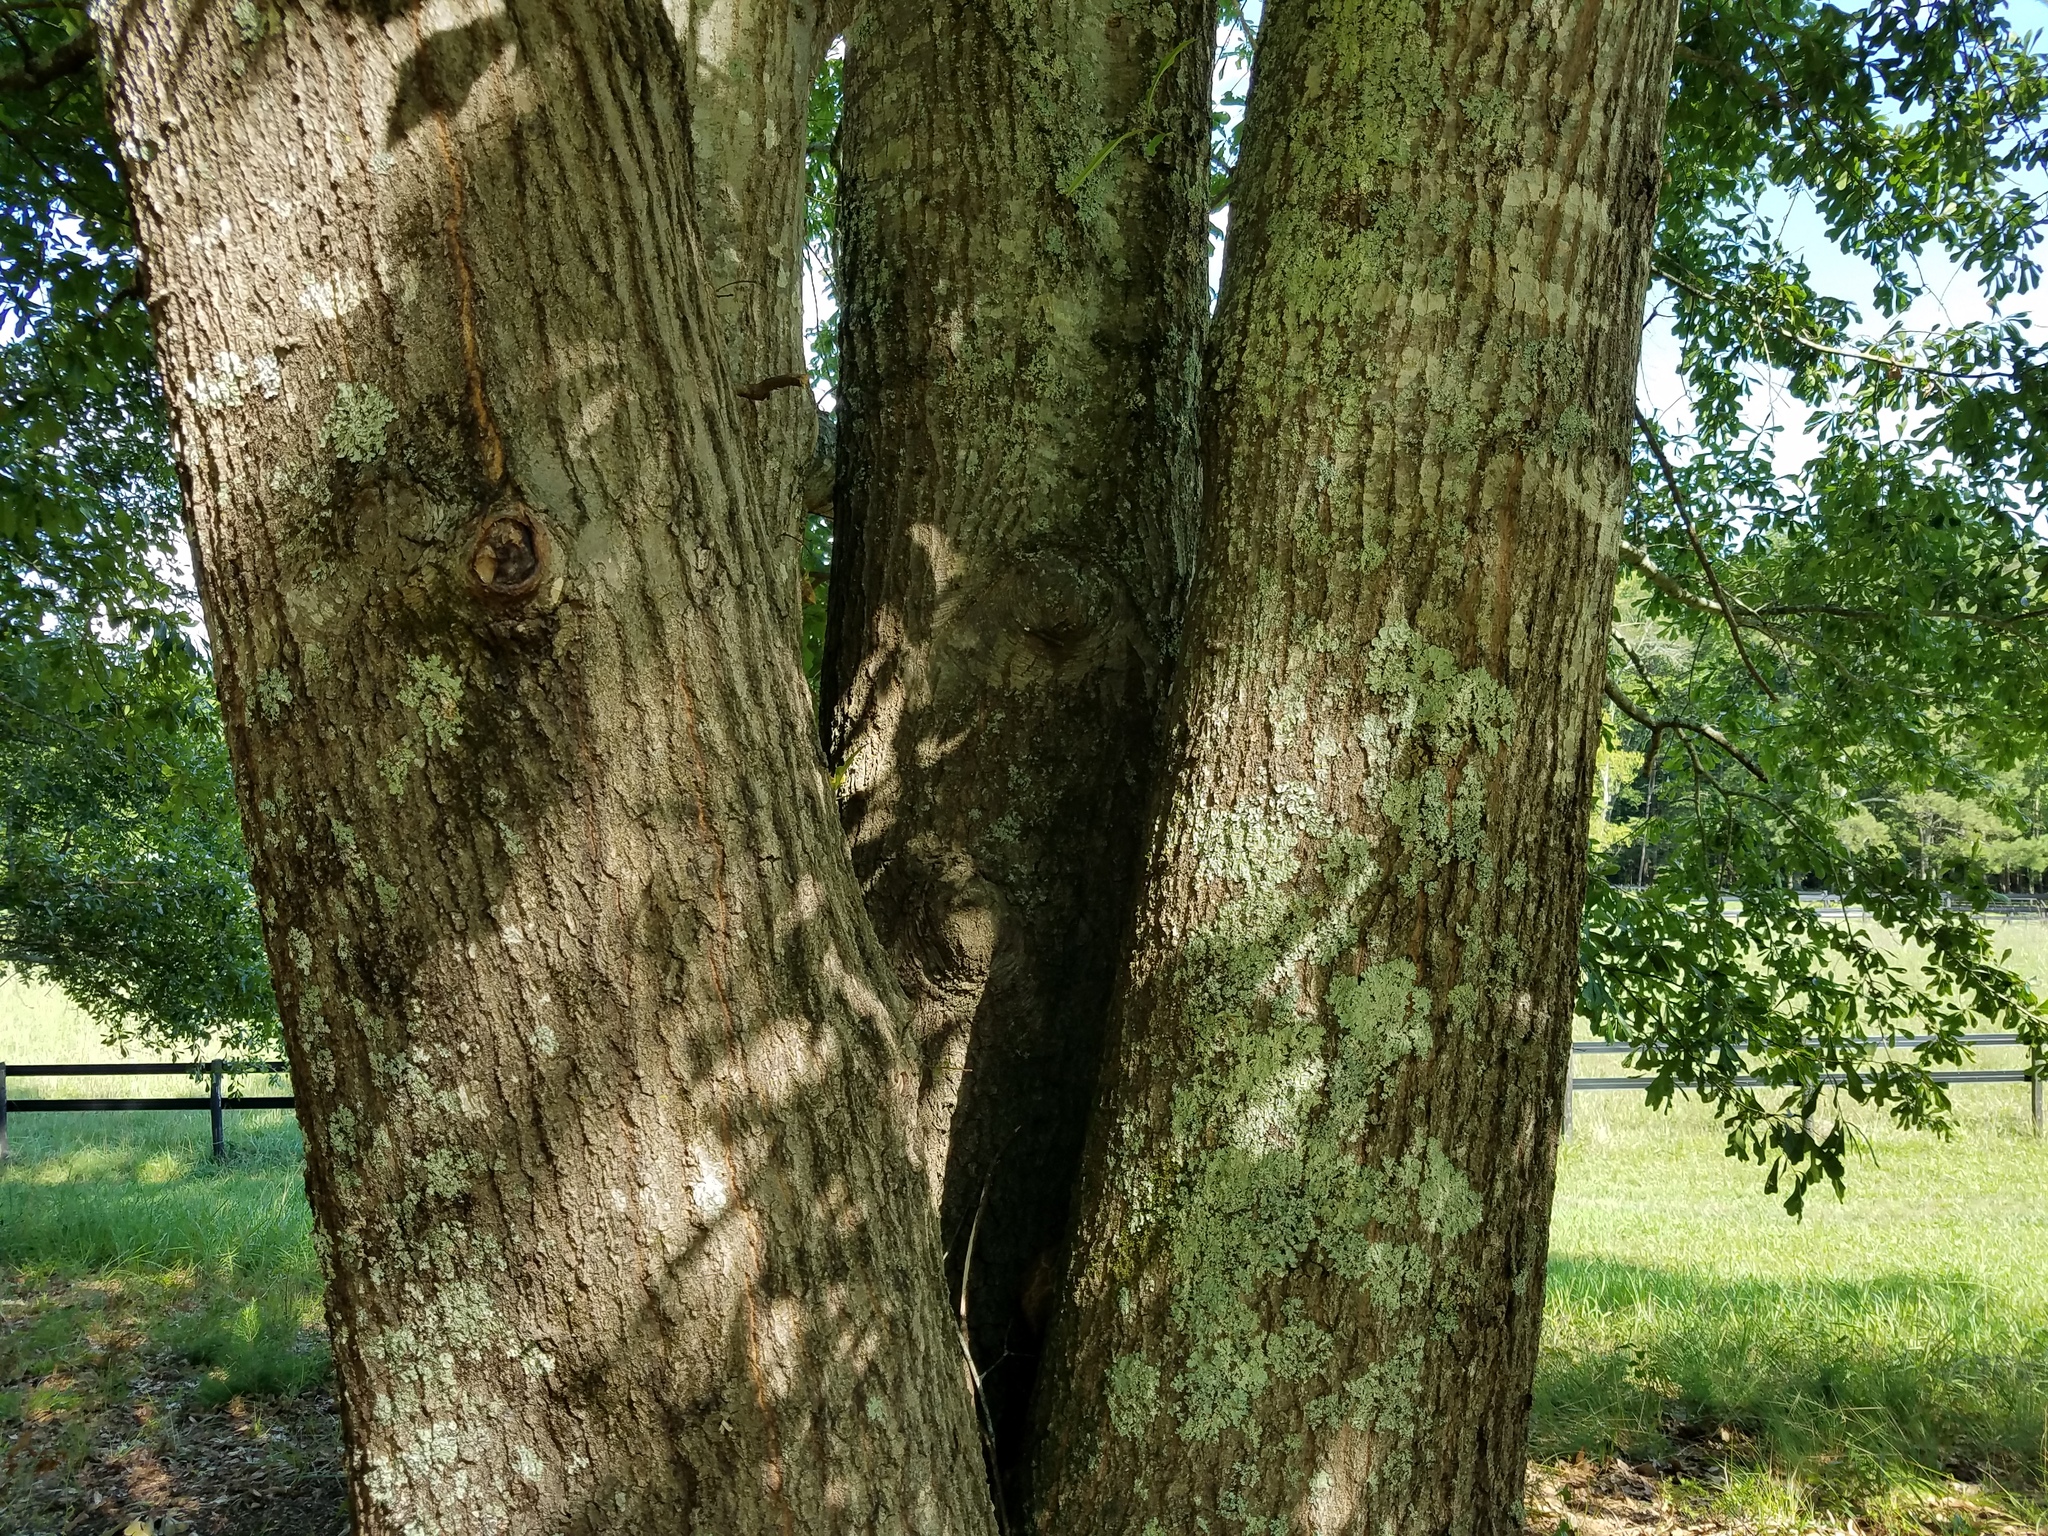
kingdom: Plantae
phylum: Tracheophyta
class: Magnoliopsida
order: Fagales
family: Fagaceae
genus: Quercus
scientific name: Quercus nigra
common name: Water oak
